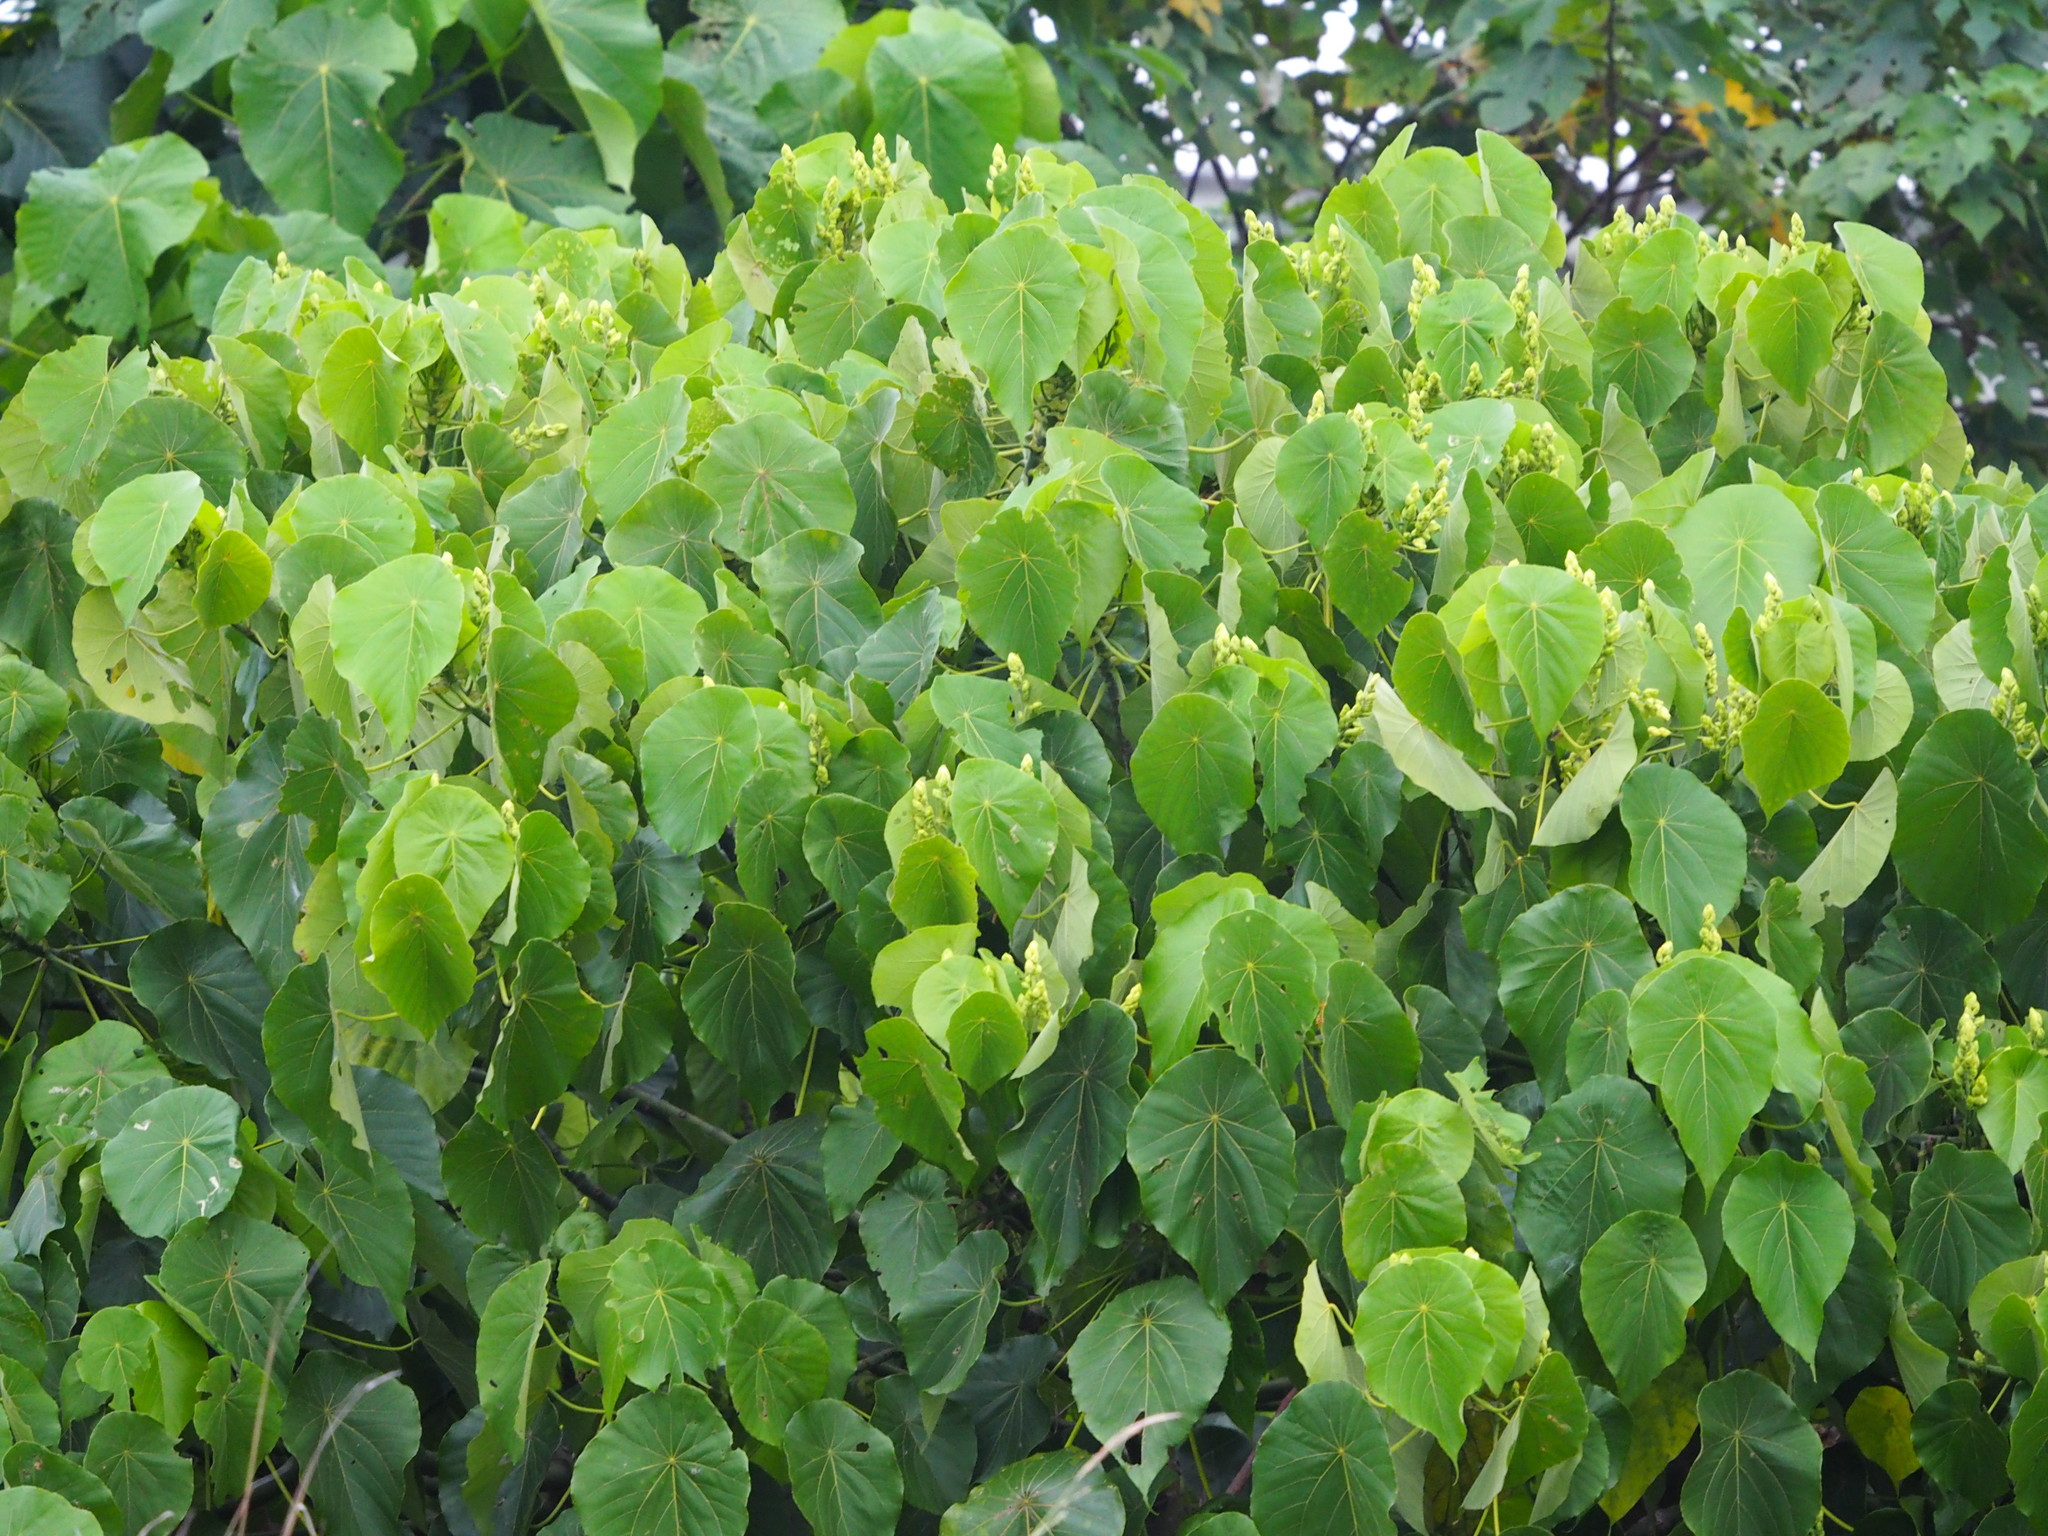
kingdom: Plantae
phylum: Tracheophyta
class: Magnoliopsida
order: Malpighiales
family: Euphorbiaceae
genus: Macaranga
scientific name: Macaranga tanarius
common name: Parasol leaf tree
